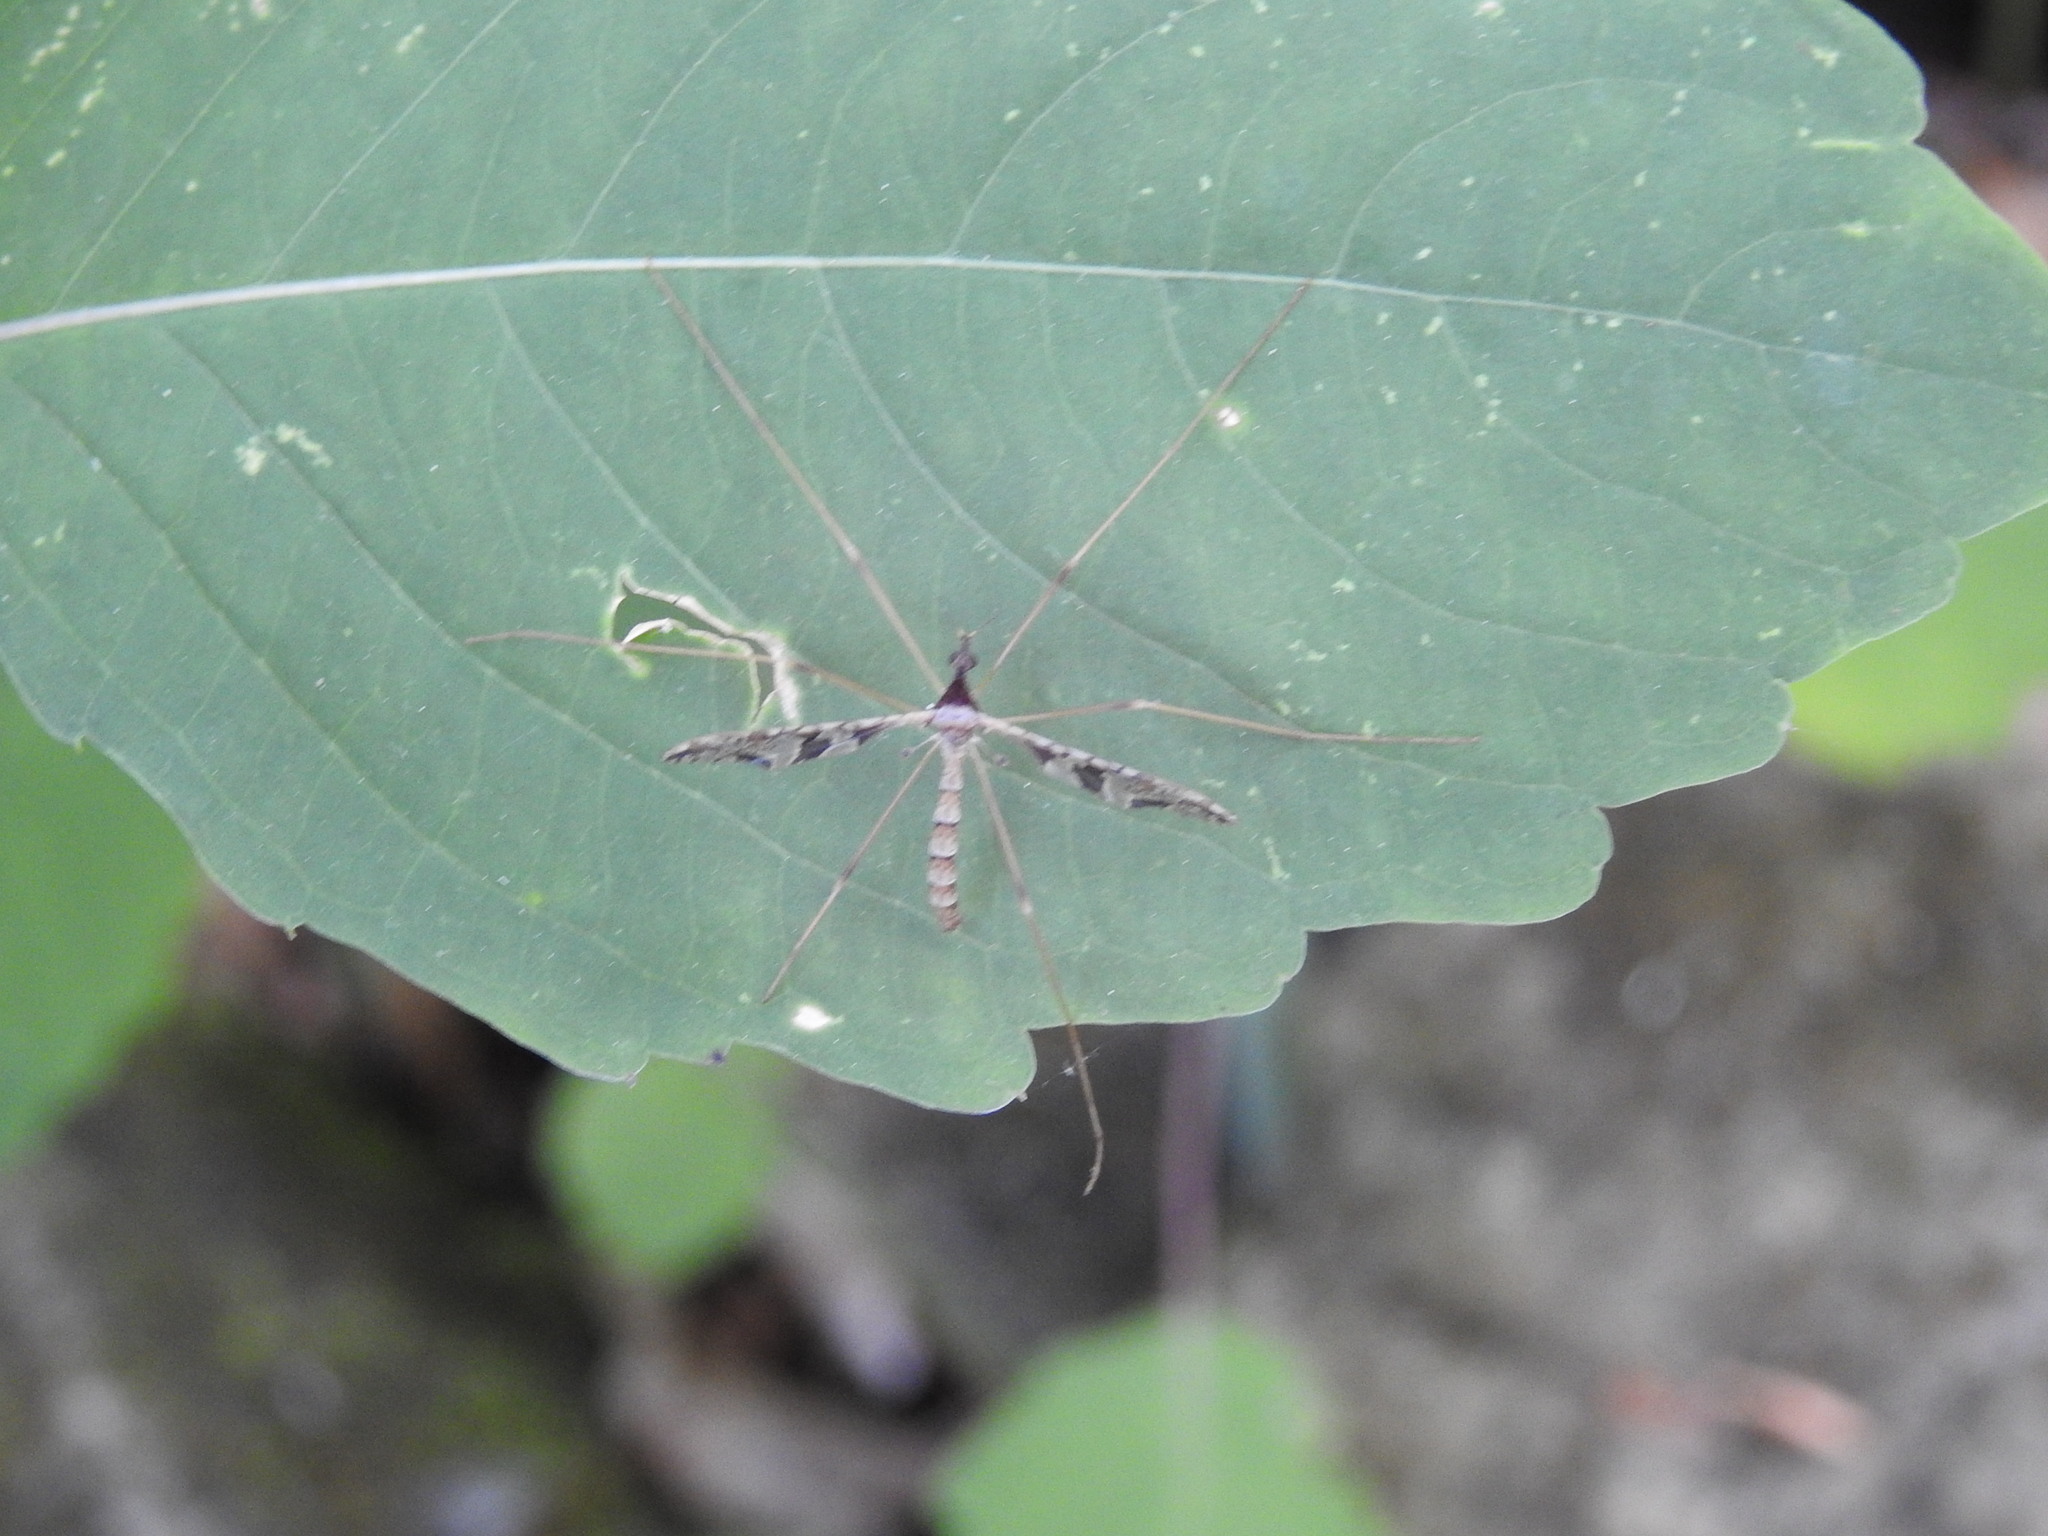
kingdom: Animalia
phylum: Arthropoda
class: Insecta
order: Diptera
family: Limoniidae
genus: Epiphragma
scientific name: Epiphragma solatrix
